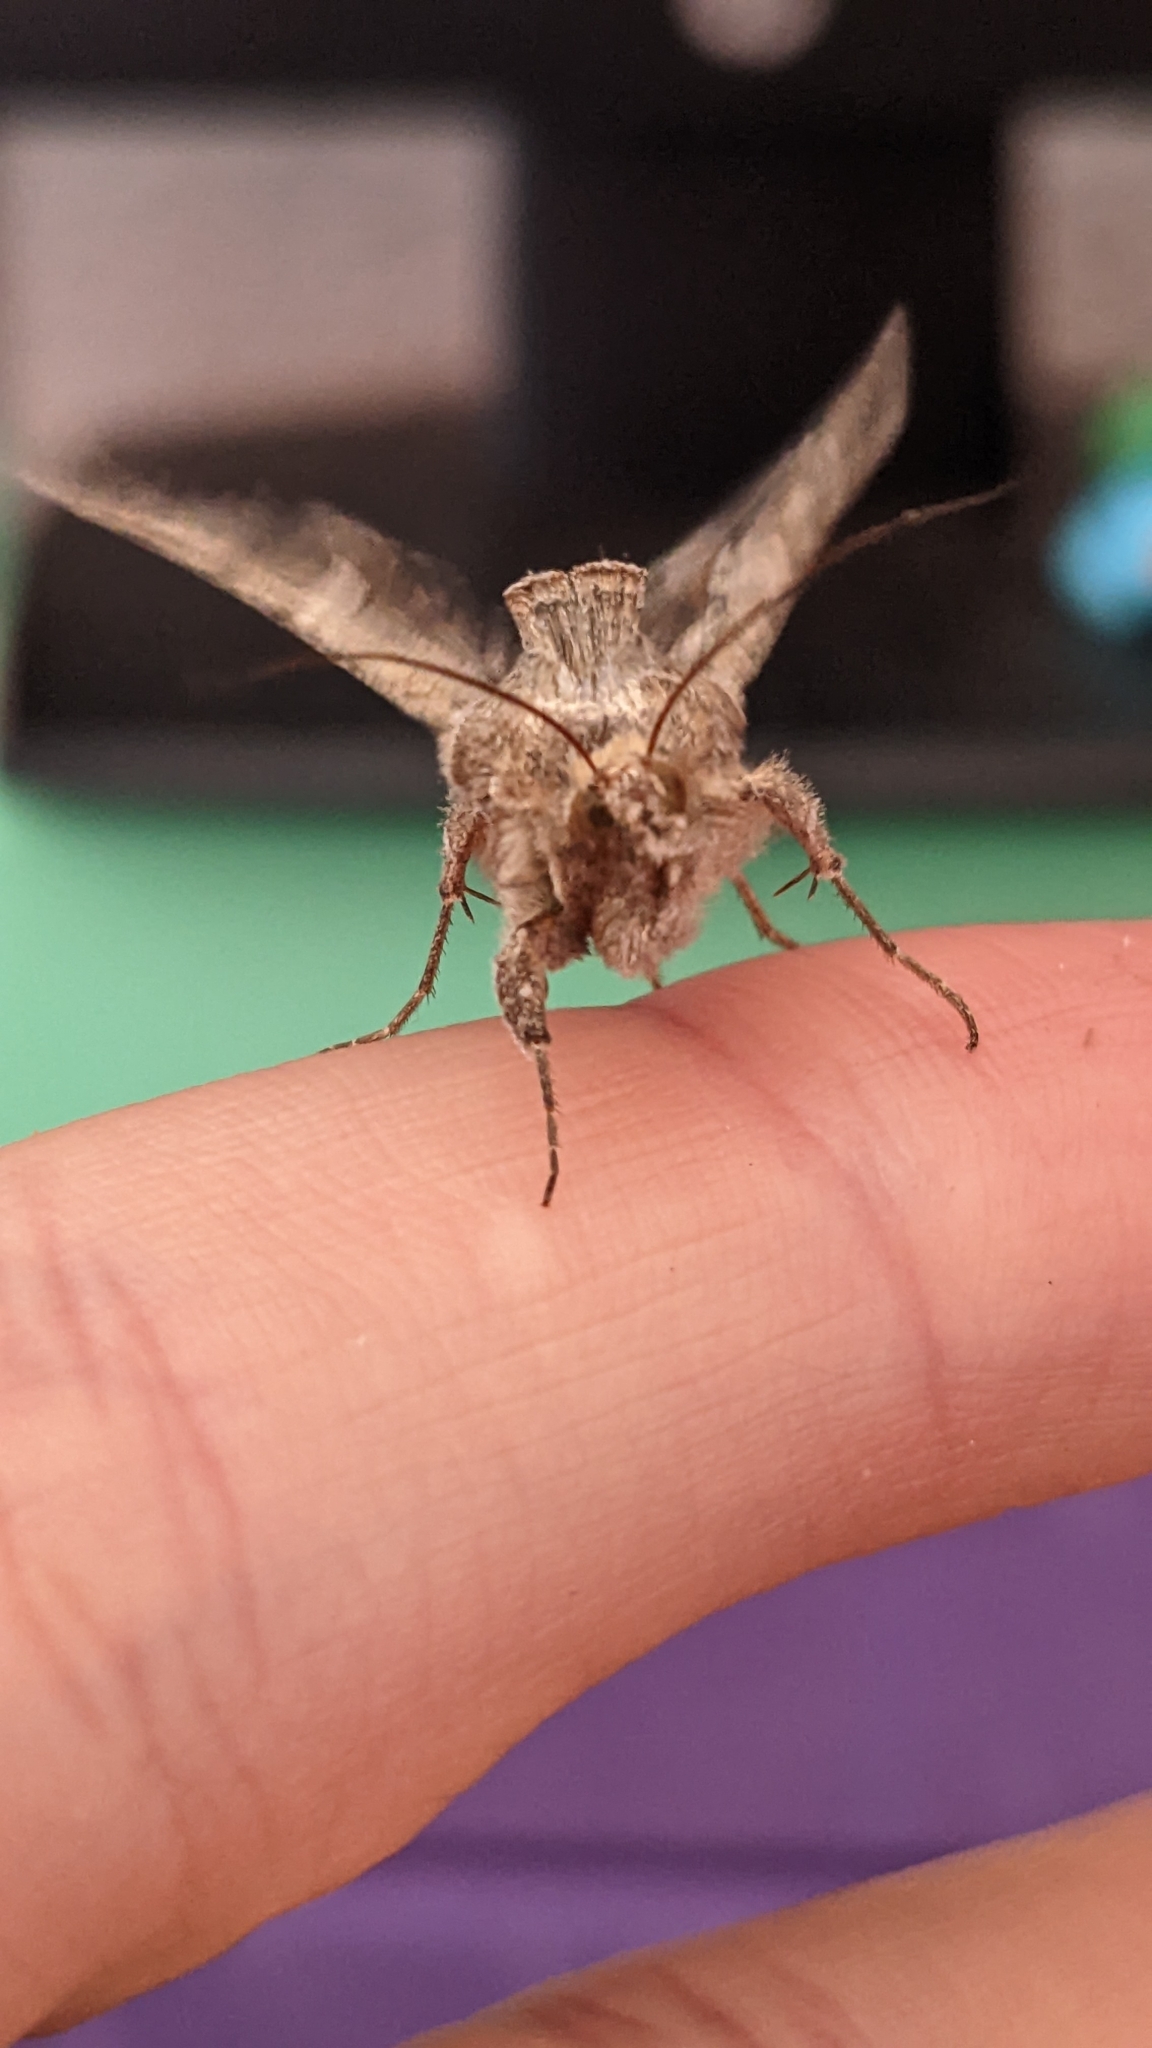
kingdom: Animalia
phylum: Arthropoda
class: Insecta
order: Lepidoptera
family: Noctuidae
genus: Autoplusia
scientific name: Autoplusia gammoides
